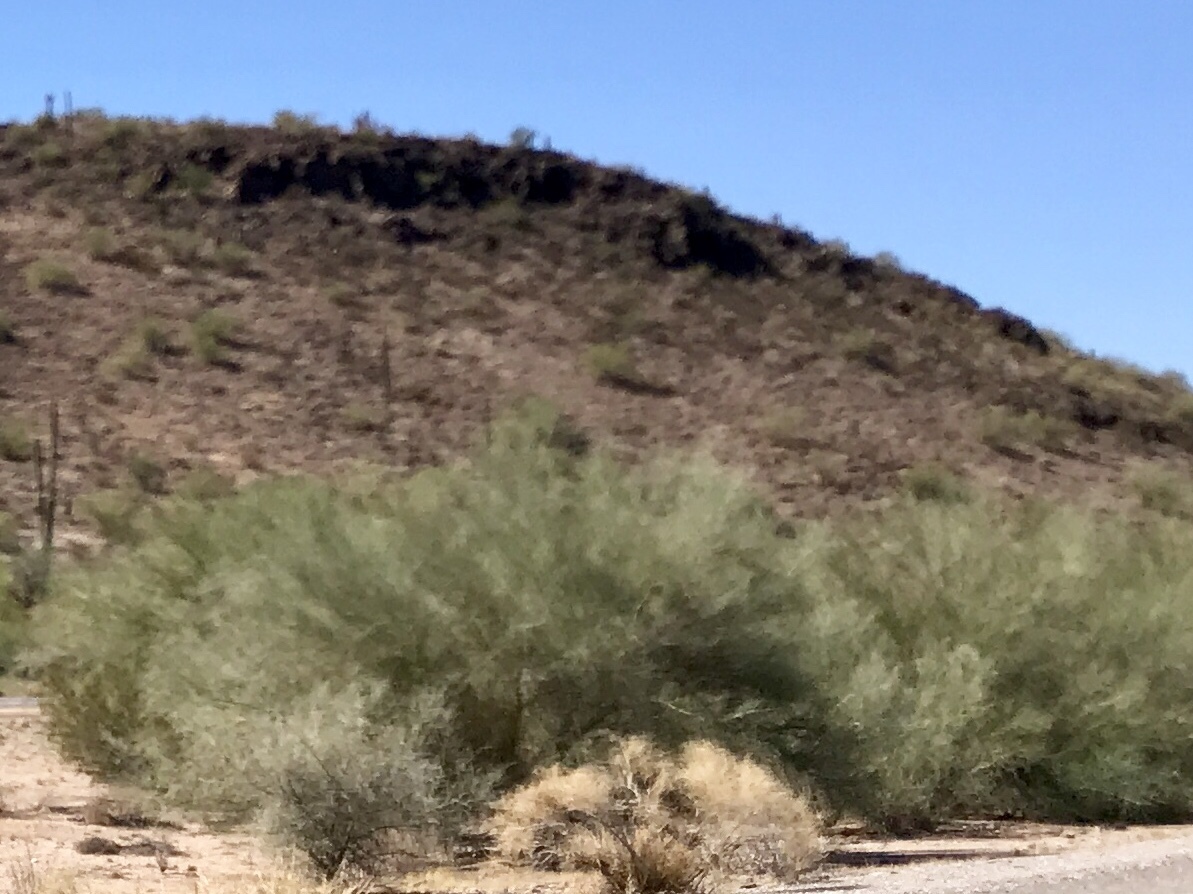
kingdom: Plantae
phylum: Tracheophyta
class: Magnoliopsida
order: Fabales
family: Fabaceae
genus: Parkinsonia
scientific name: Parkinsonia florida
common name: Blue paloverde
